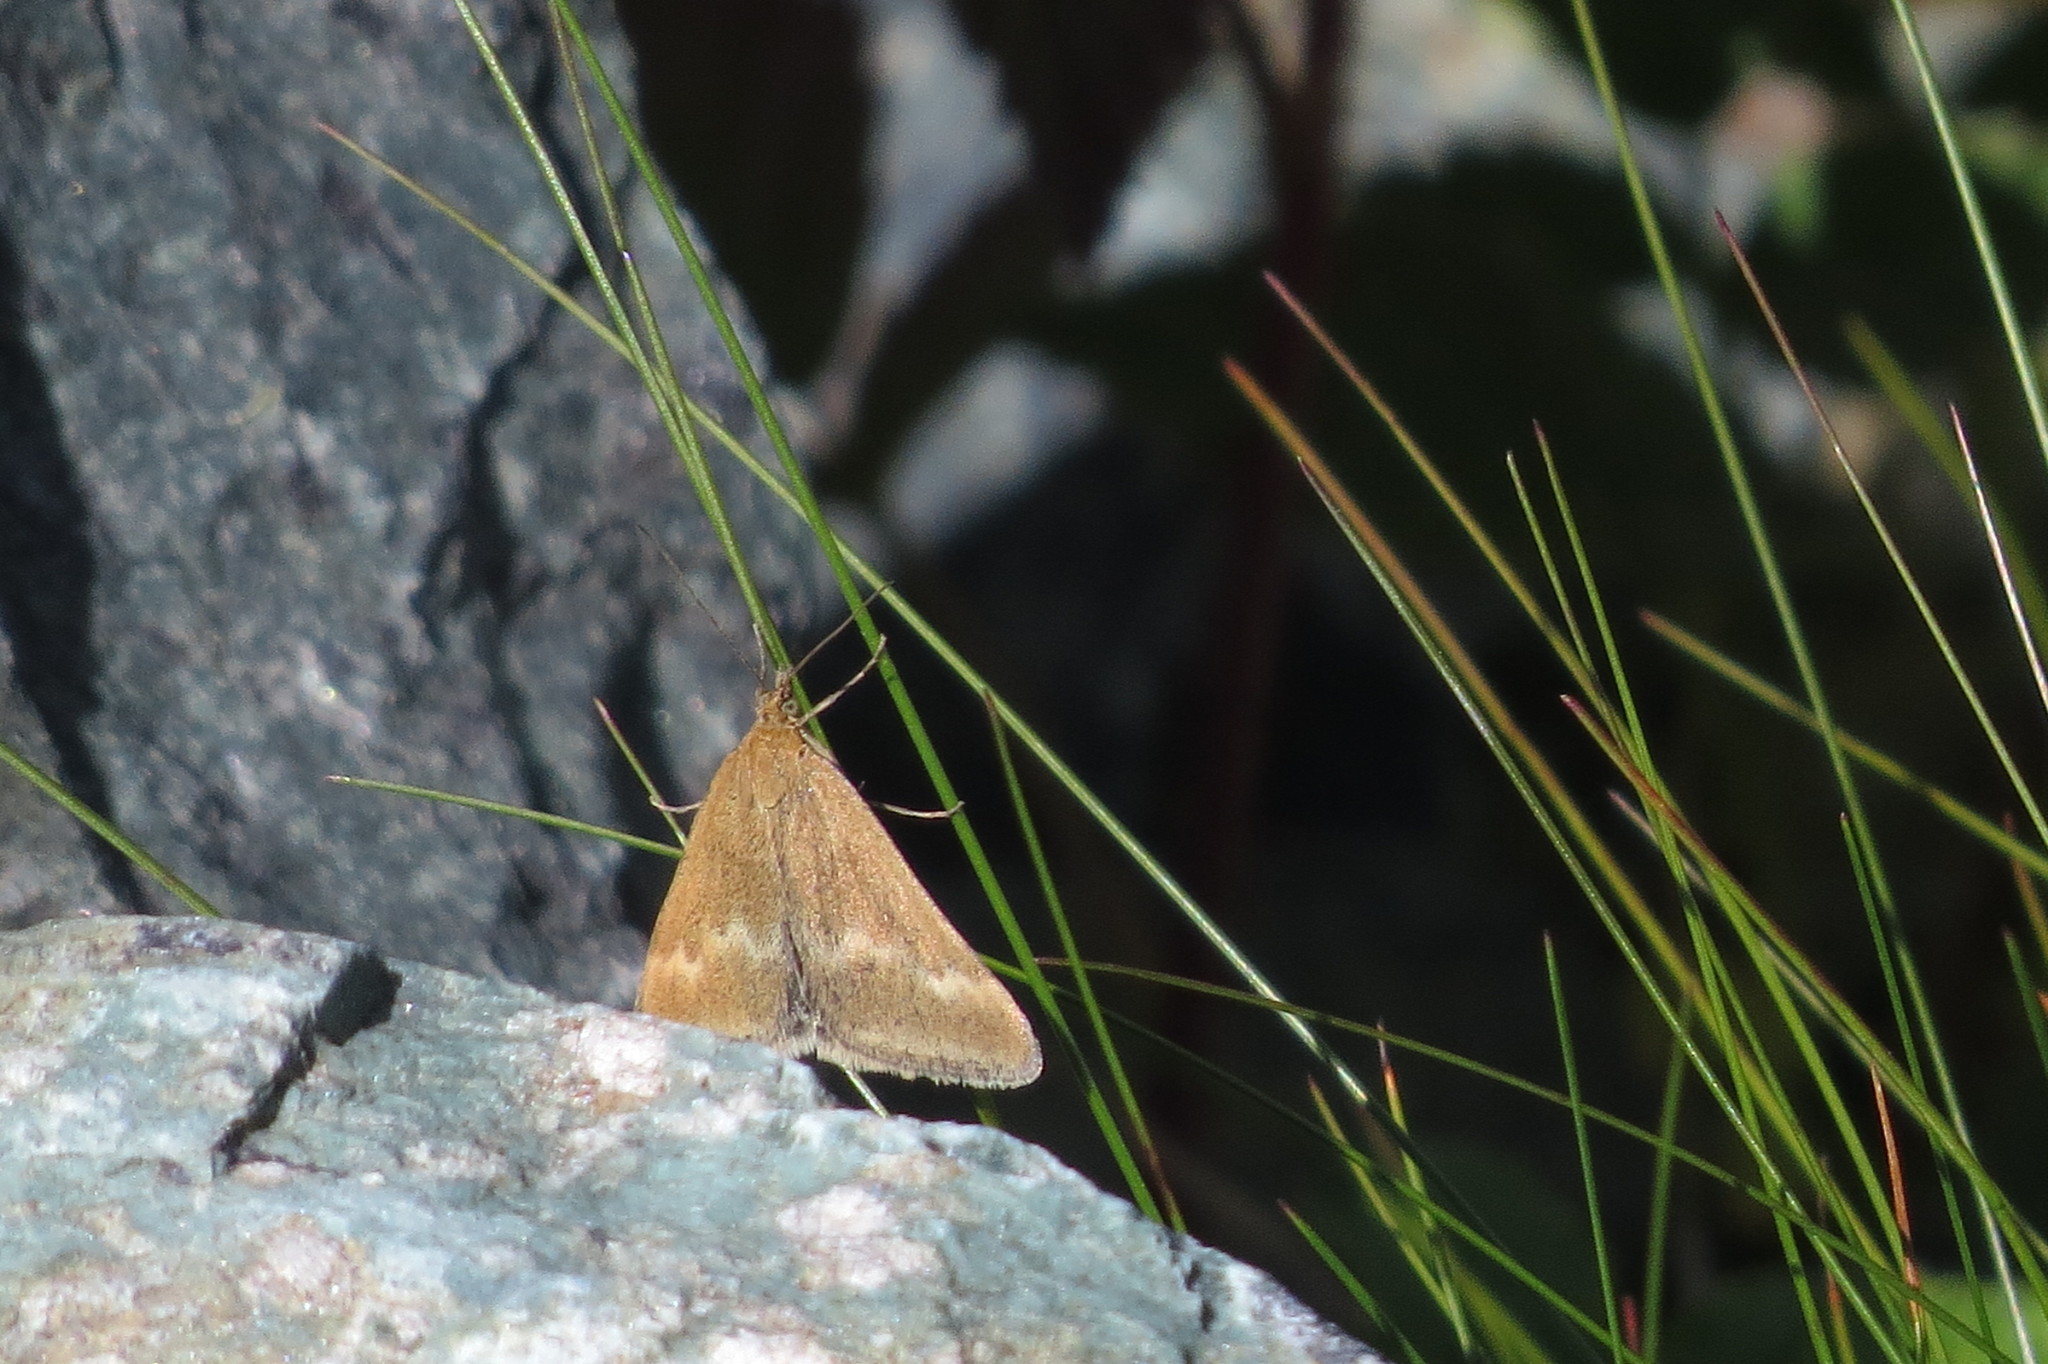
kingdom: Animalia
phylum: Arthropoda
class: Insecta
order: Lepidoptera
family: Crambidae
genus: Pyrausta
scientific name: Pyrausta aerealis
